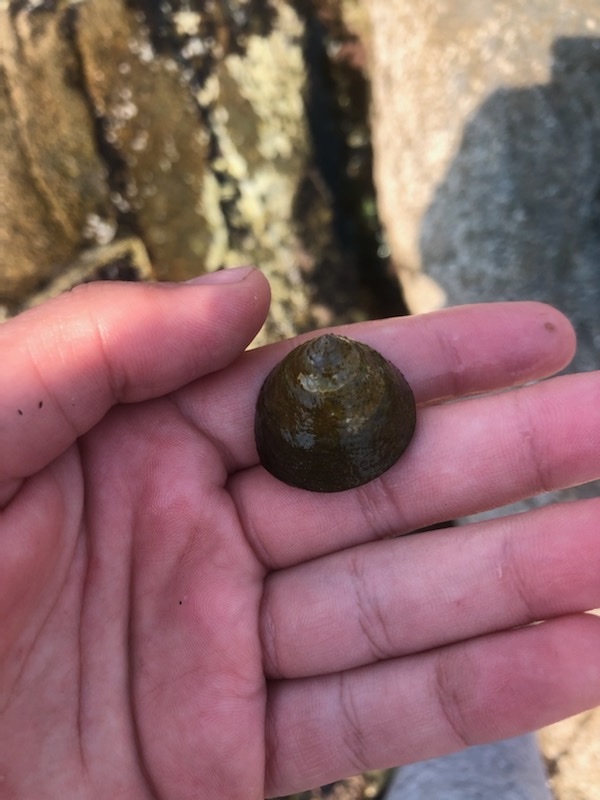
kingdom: Animalia
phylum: Mollusca
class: Gastropoda
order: Trochida
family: Tegulidae
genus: Tegula
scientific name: Tegula montereyi
